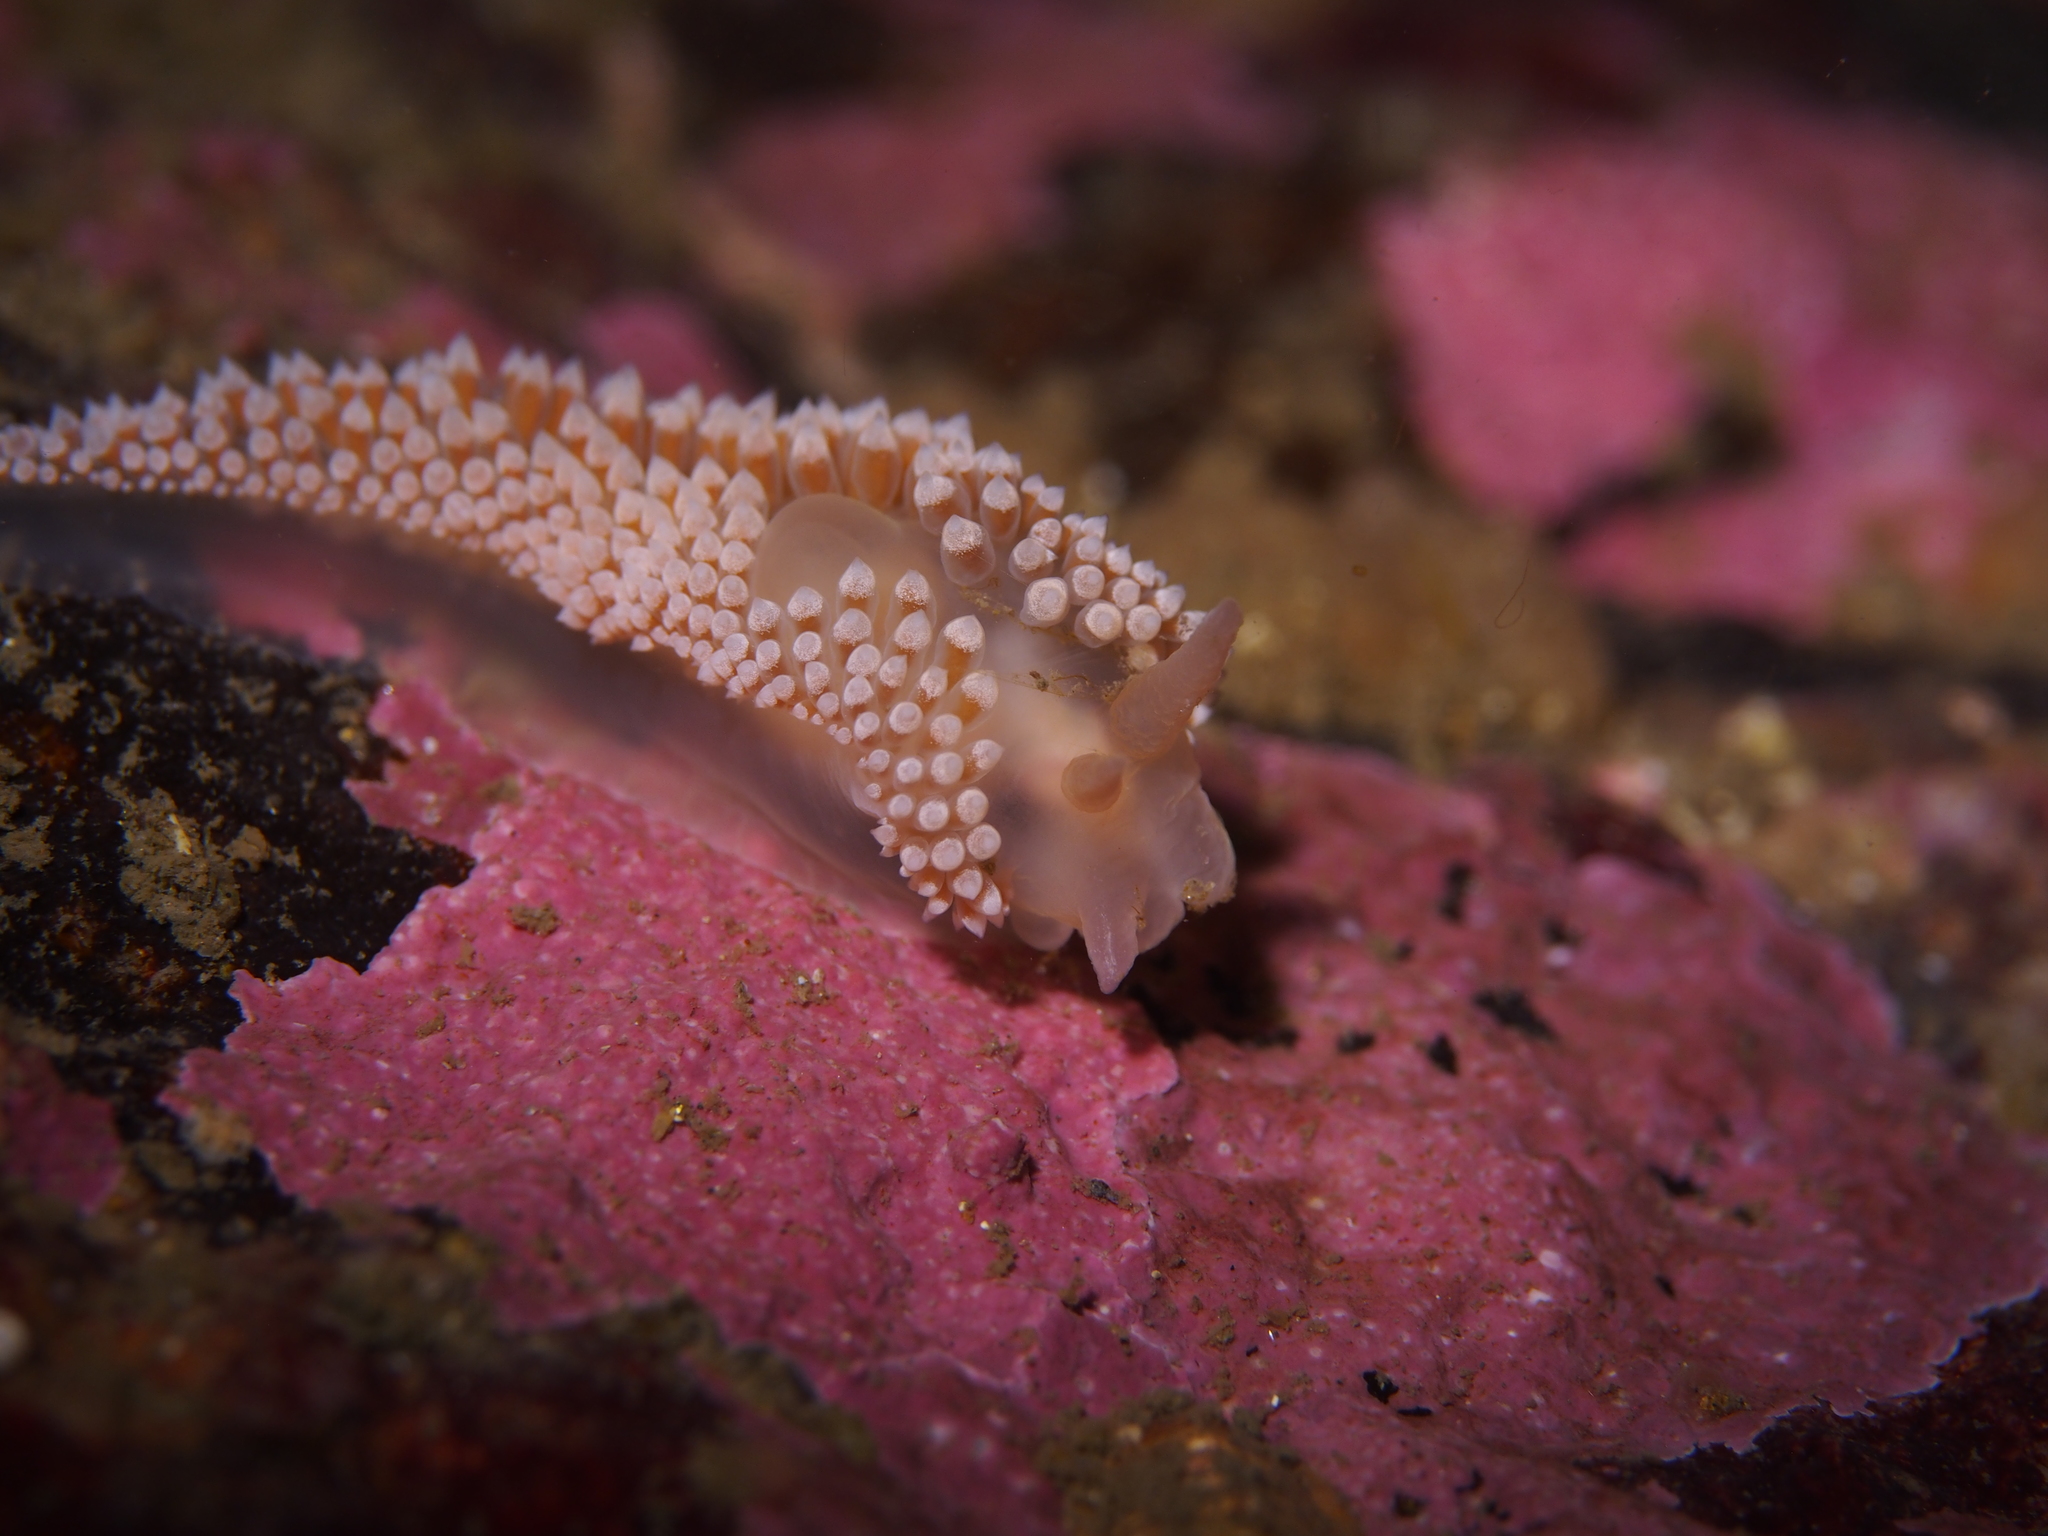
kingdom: Animalia
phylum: Mollusca
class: Gastropoda
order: Nudibranchia
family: Coryphellidae
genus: Coryphella
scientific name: Coryphella verrucosa
